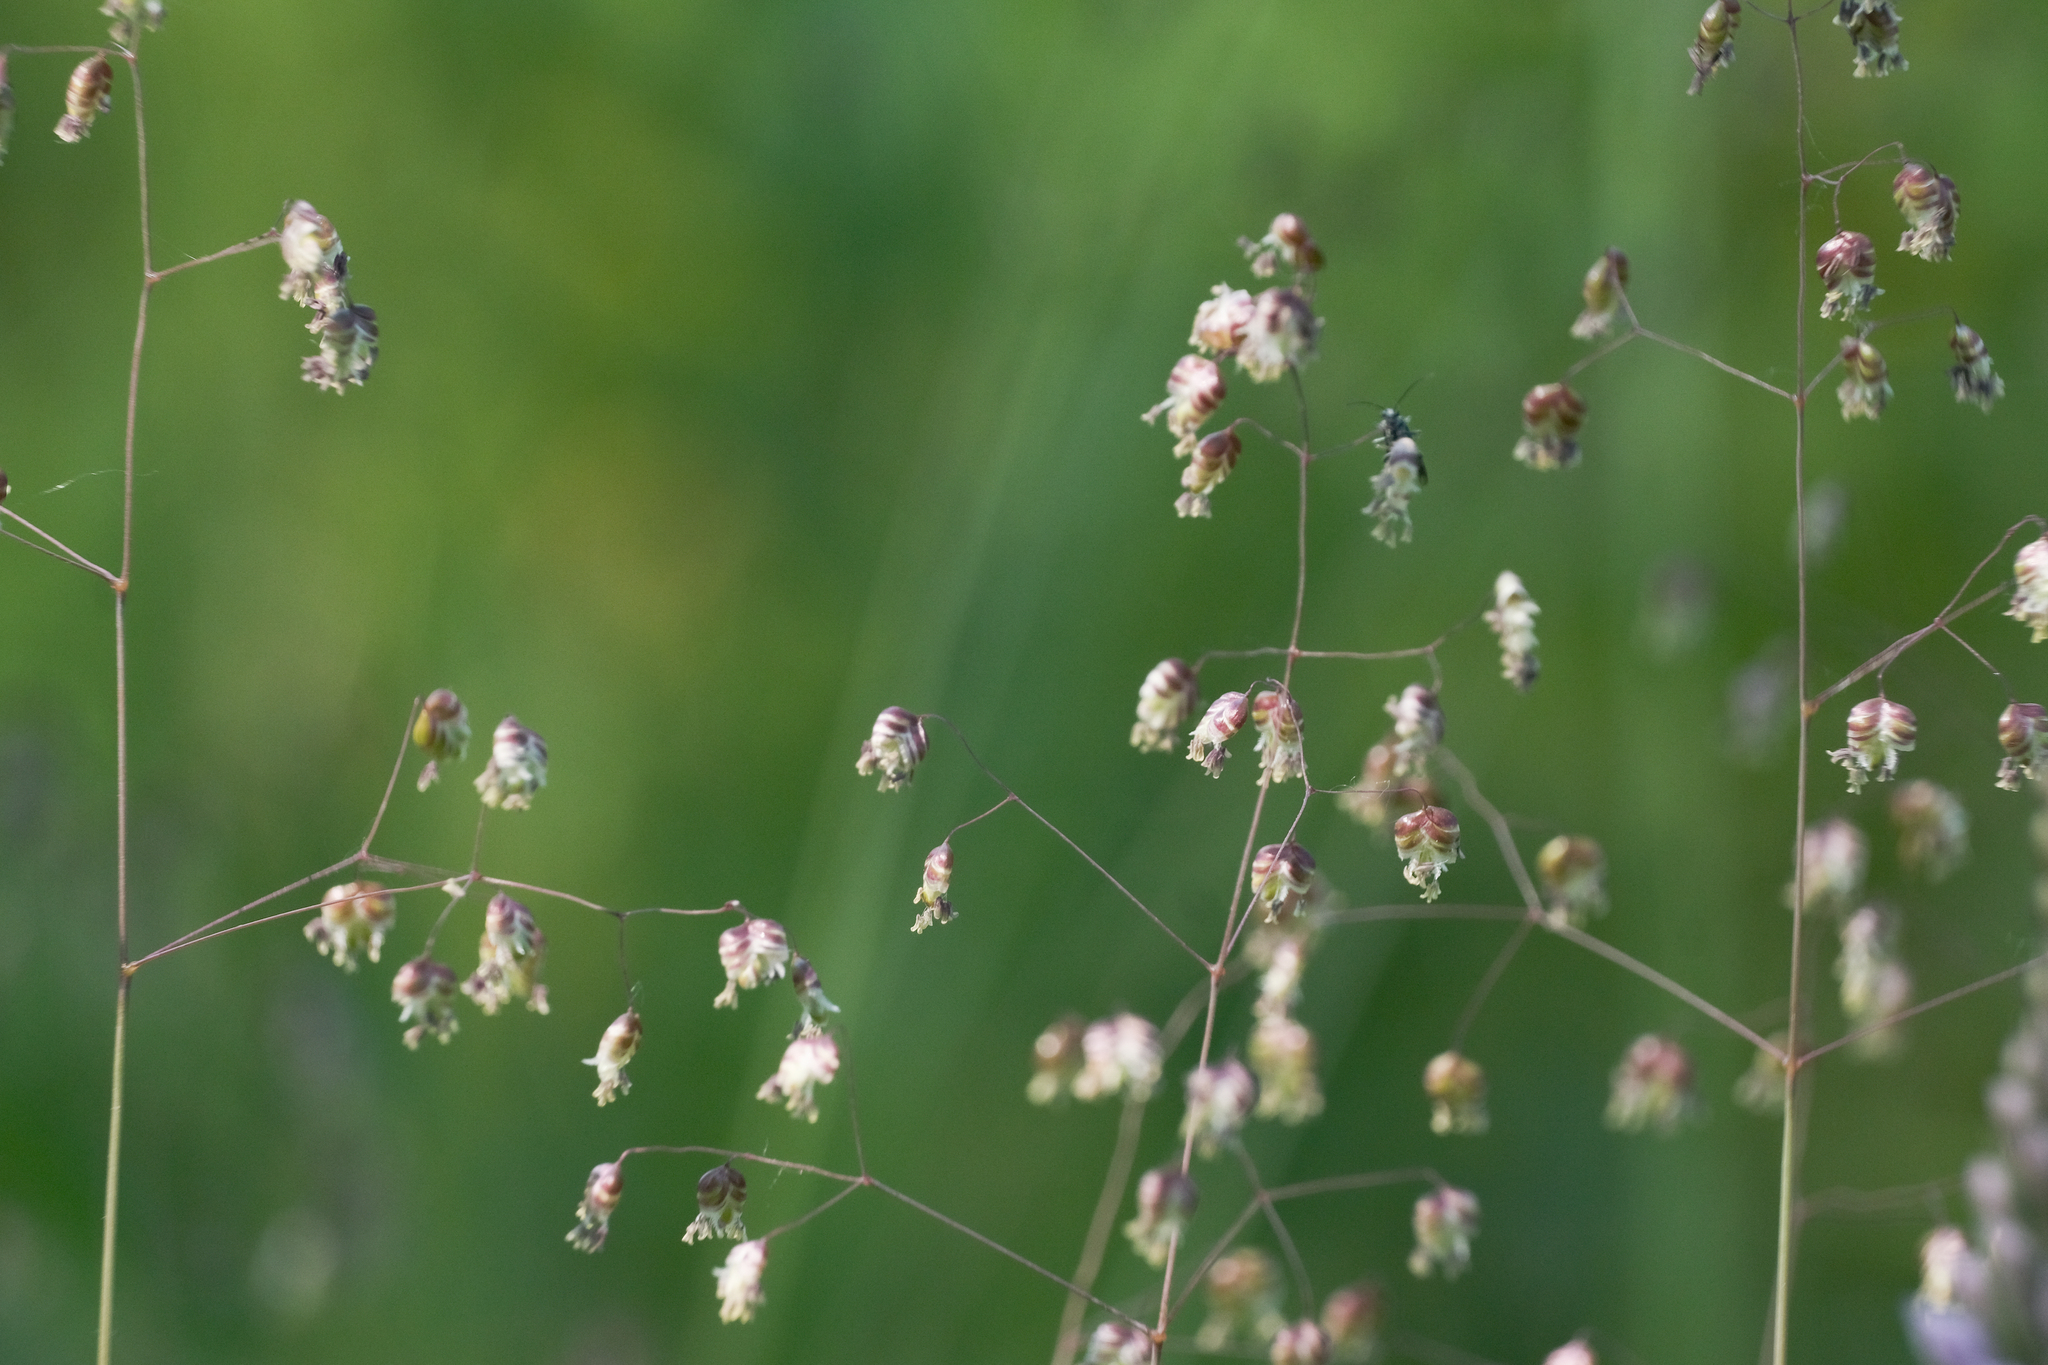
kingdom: Plantae
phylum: Tracheophyta
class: Liliopsida
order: Poales
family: Poaceae
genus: Briza
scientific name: Briza media
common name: Quaking grass
